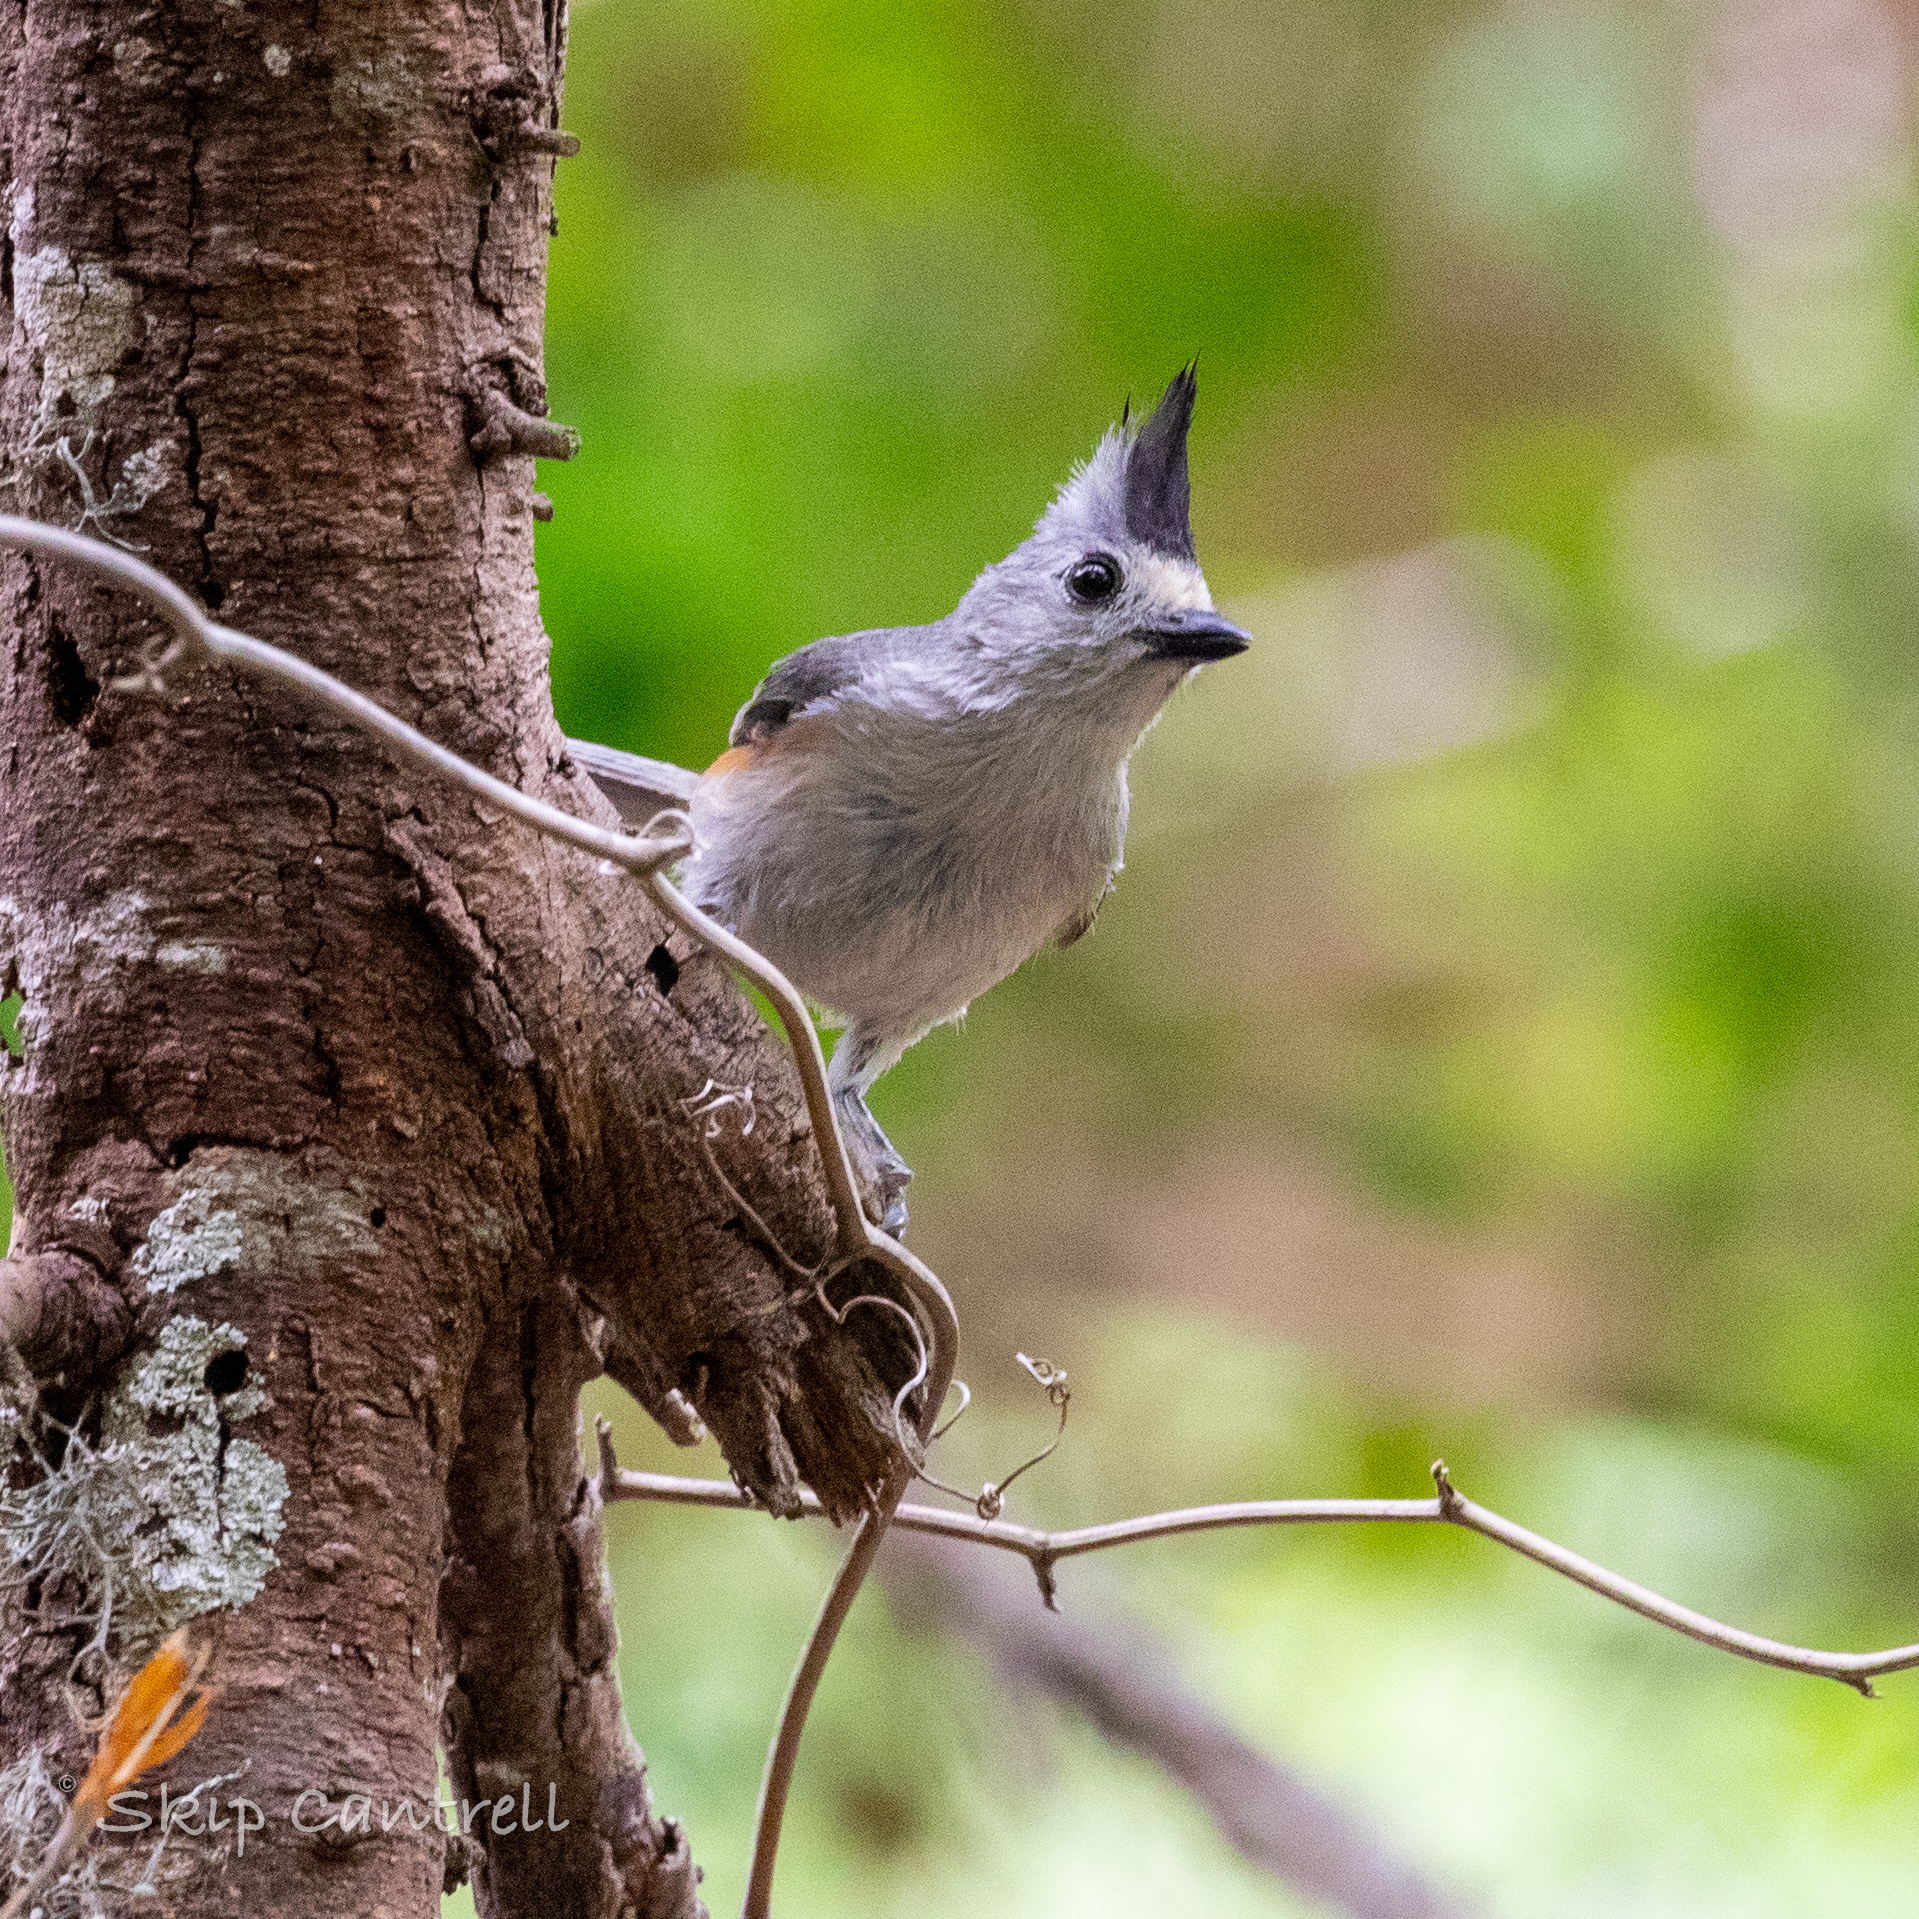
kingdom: Animalia
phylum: Chordata
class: Aves
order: Passeriformes
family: Paridae
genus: Baeolophus
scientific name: Baeolophus atricristatus
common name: Black-crested titmouse
